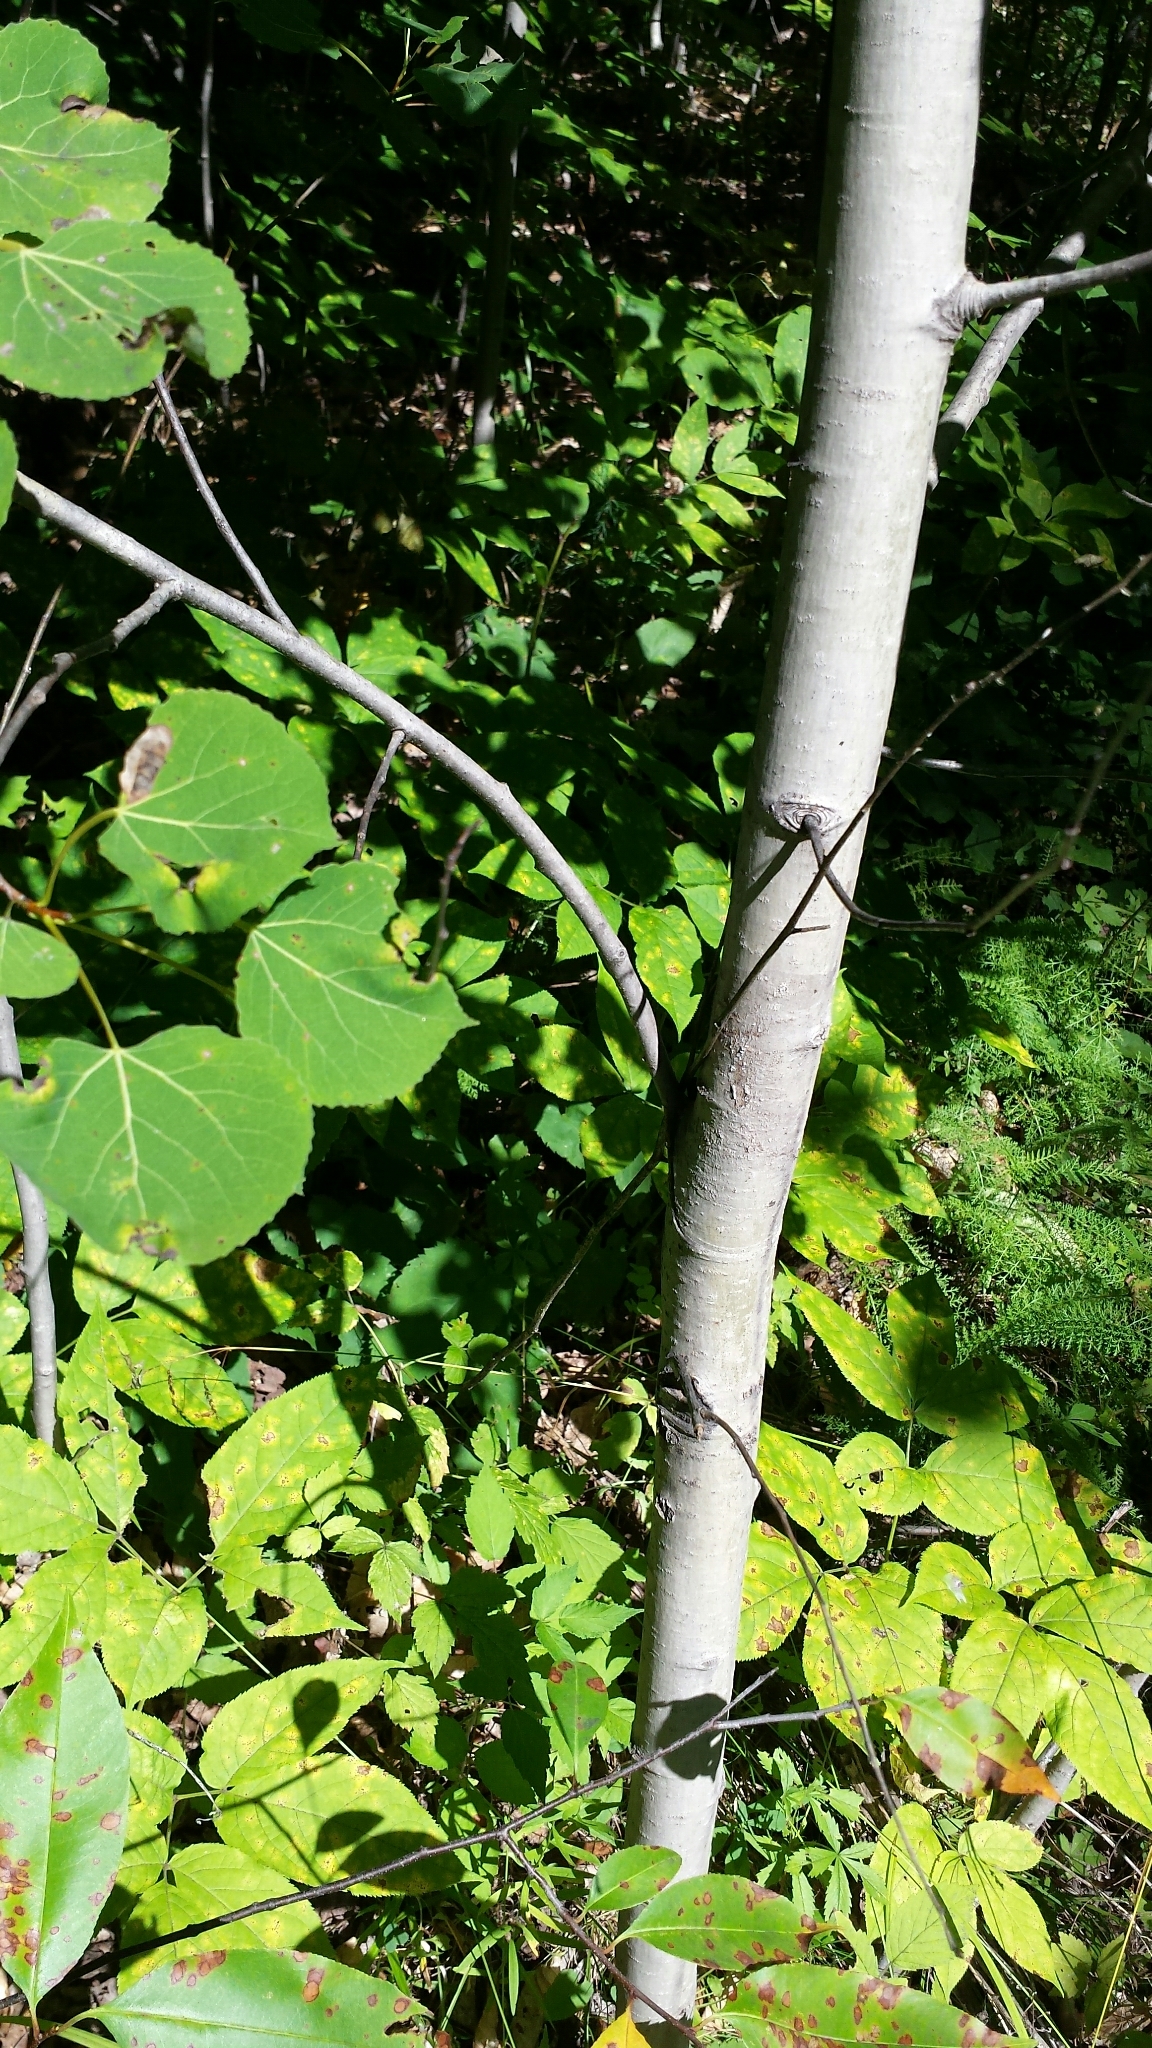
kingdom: Plantae
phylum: Tracheophyta
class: Magnoliopsida
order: Malpighiales
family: Salicaceae
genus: Populus
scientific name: Populus tremuloides
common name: Quaking aspen
